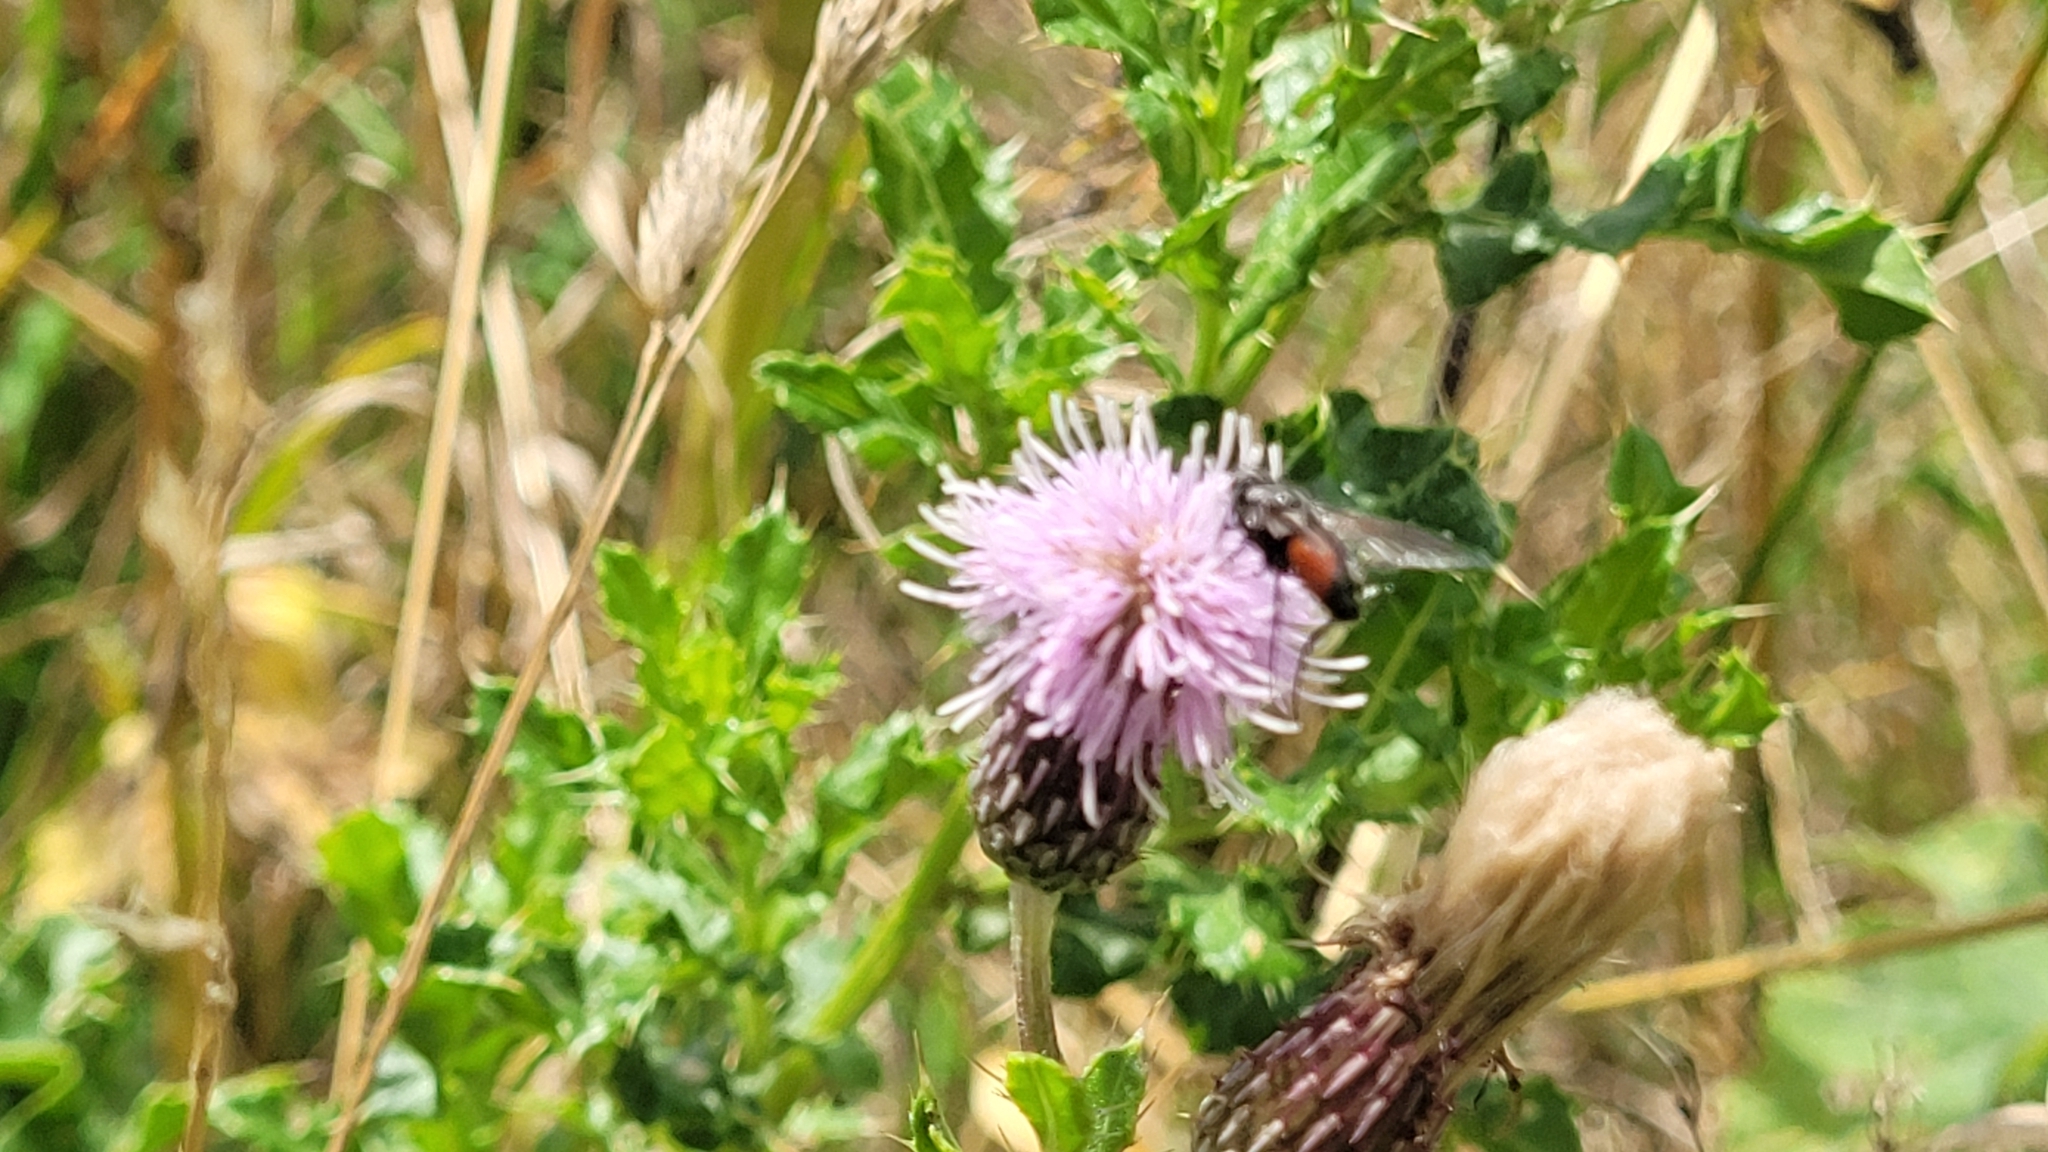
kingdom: Animalia
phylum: Arthropoda
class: Insecta
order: Diptera
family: Tachinidae
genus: Eriothrix
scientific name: Eriothrix rufomaculatus
